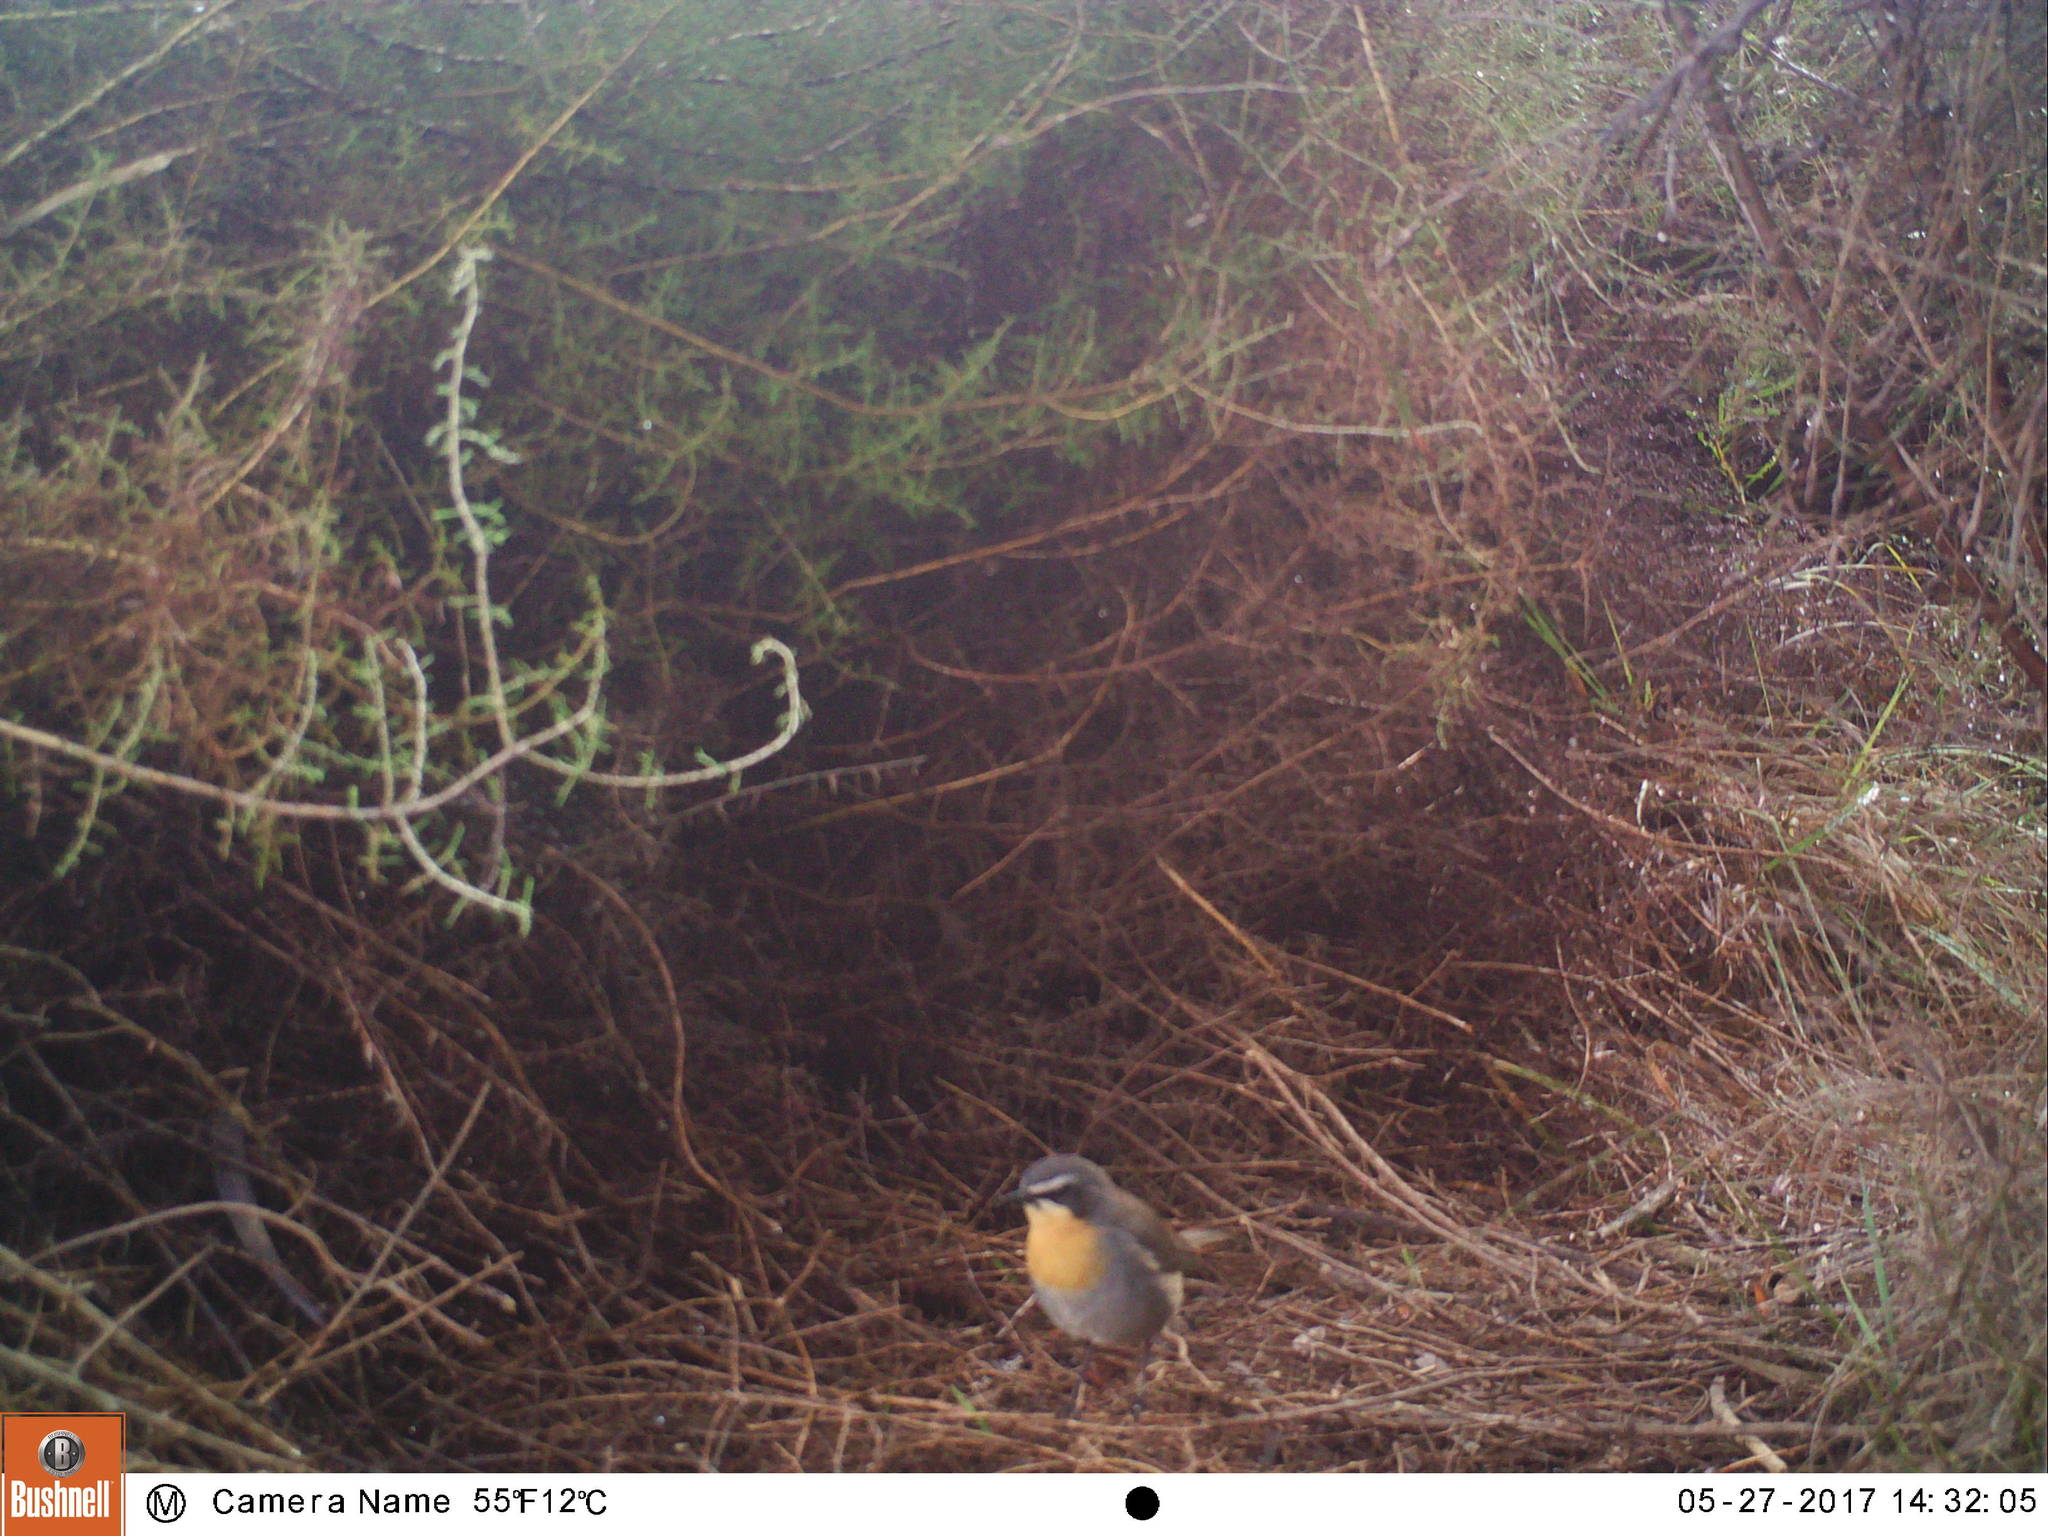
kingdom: Animalia
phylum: Chordata
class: Aves
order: Passeriformes
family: Muscicapidae
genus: Cossypha
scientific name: Cossypha caffra
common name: Cape robin-chat
